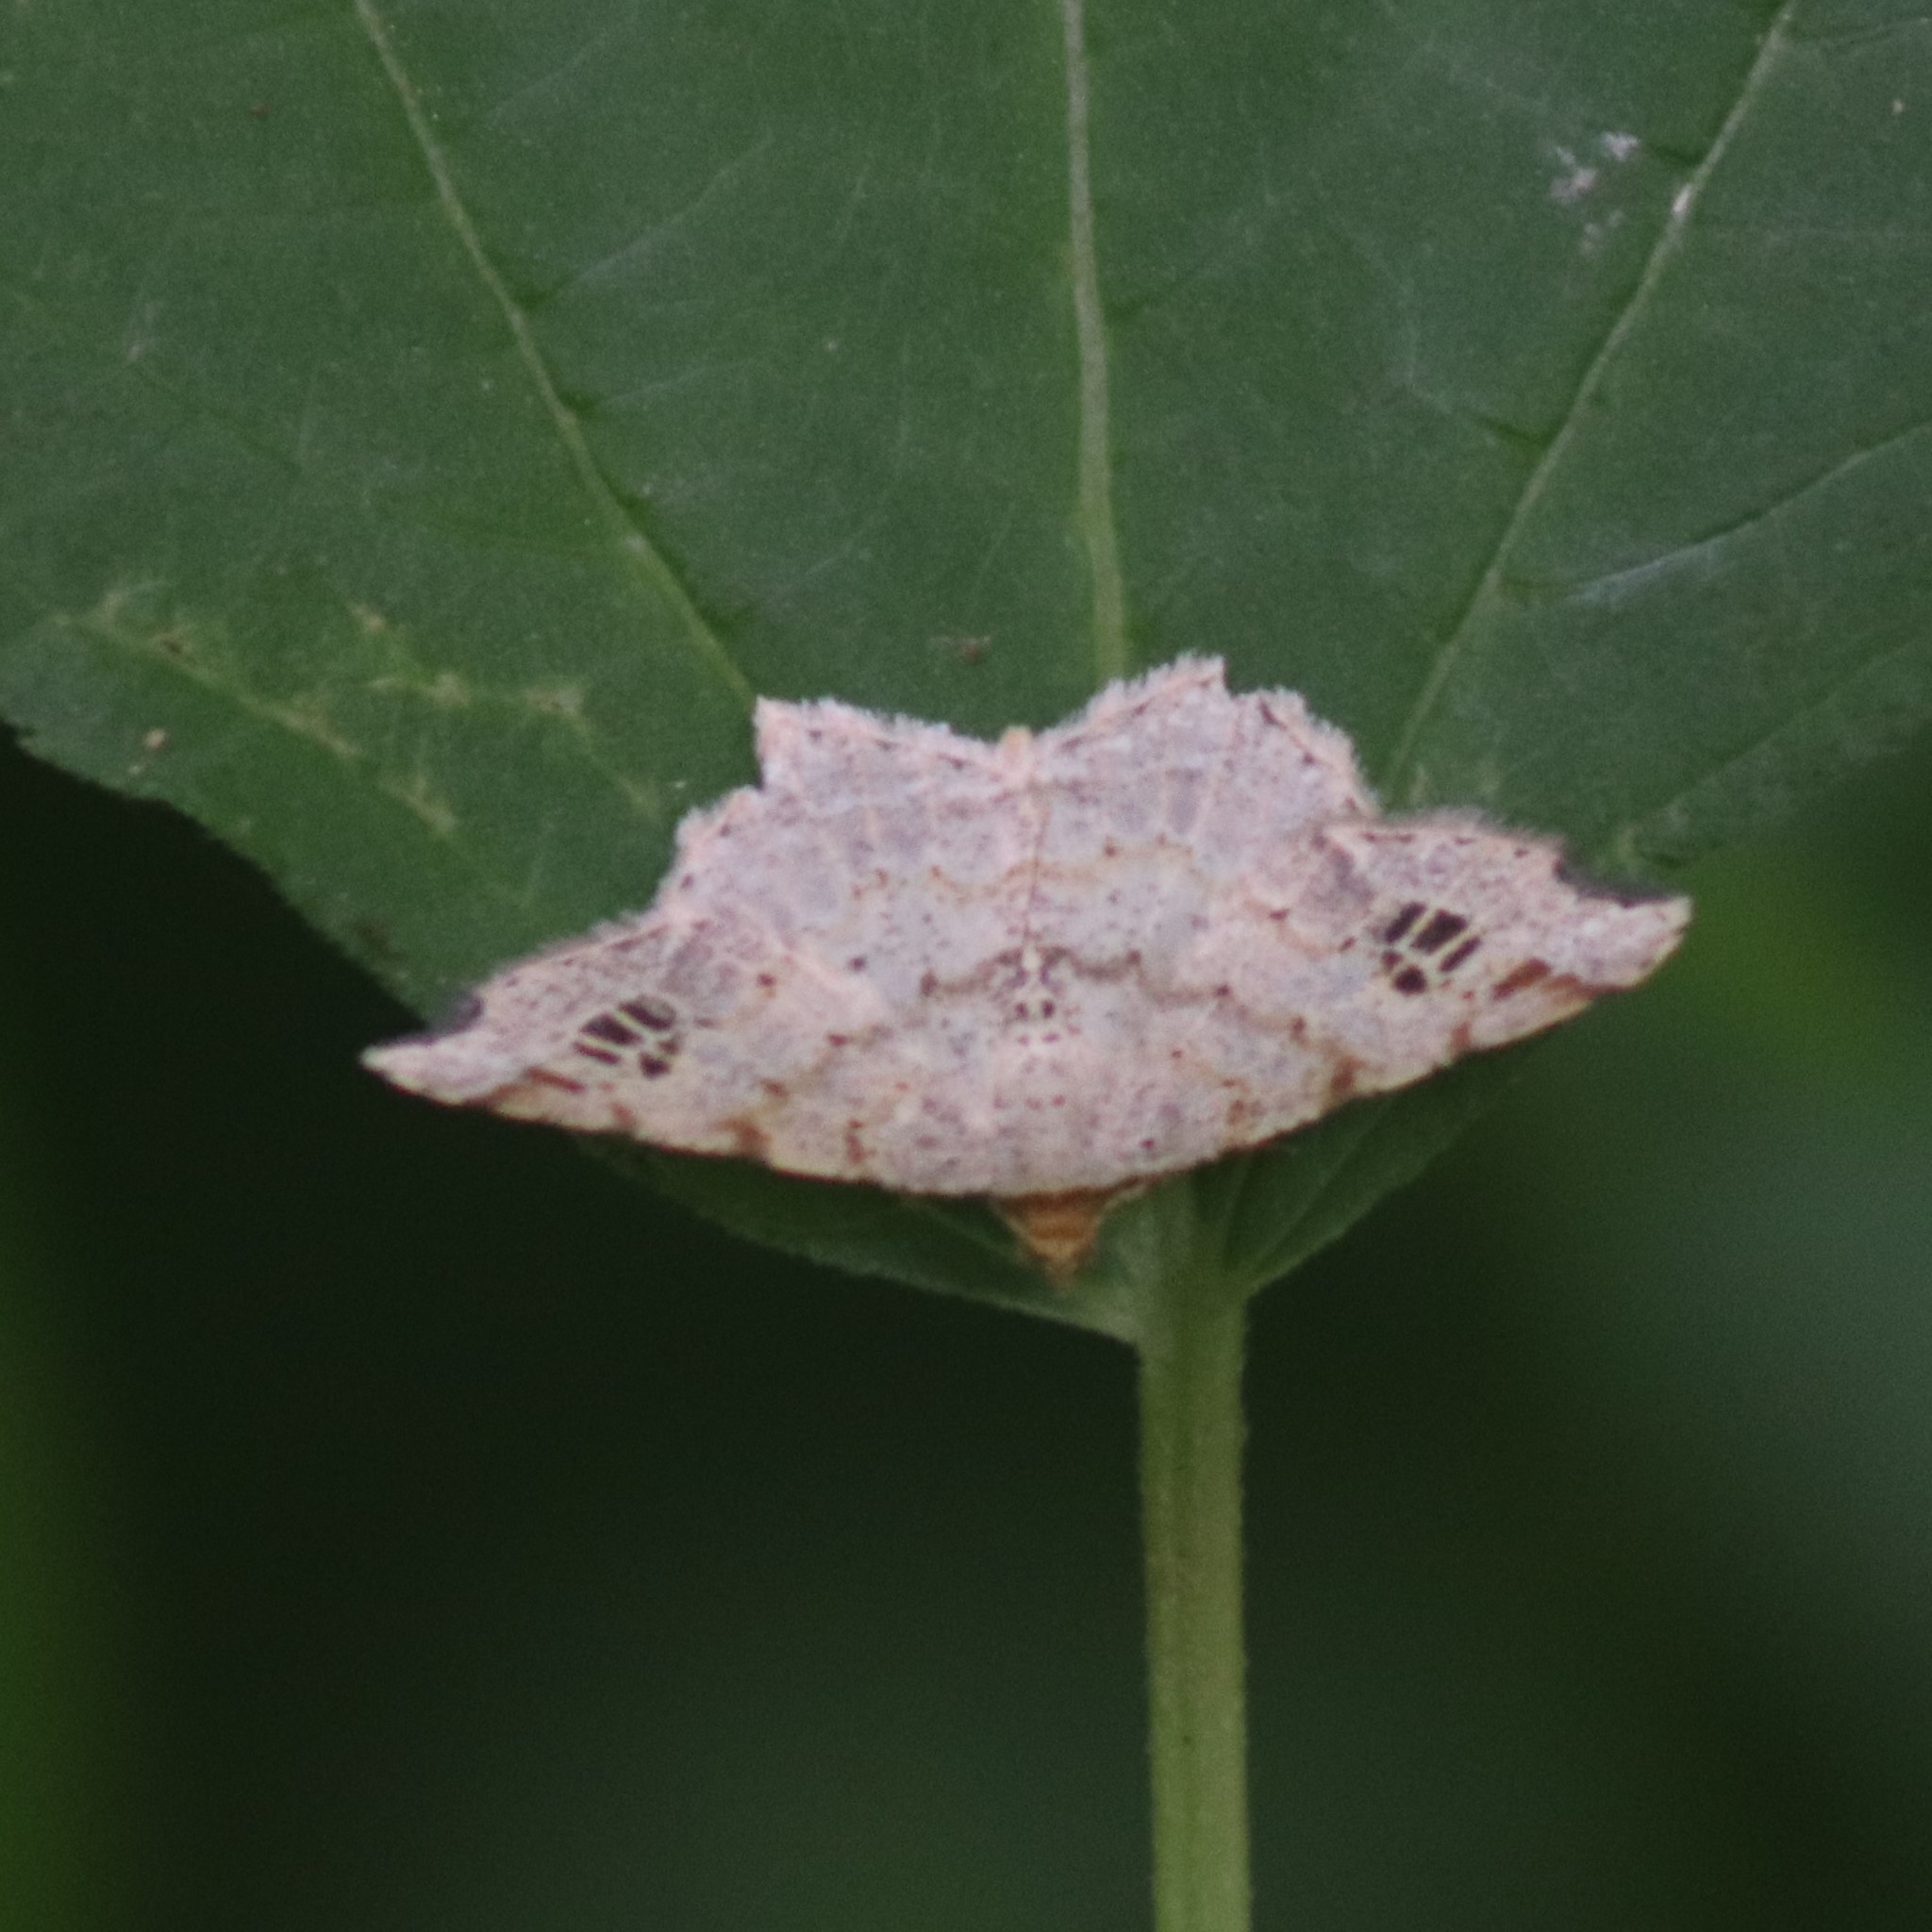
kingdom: Animalia
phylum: Arthropoda
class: Insecta
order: Lepidoptera
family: Geometridae
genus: Macaria
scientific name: Macaria aemulataria
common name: Common angle
